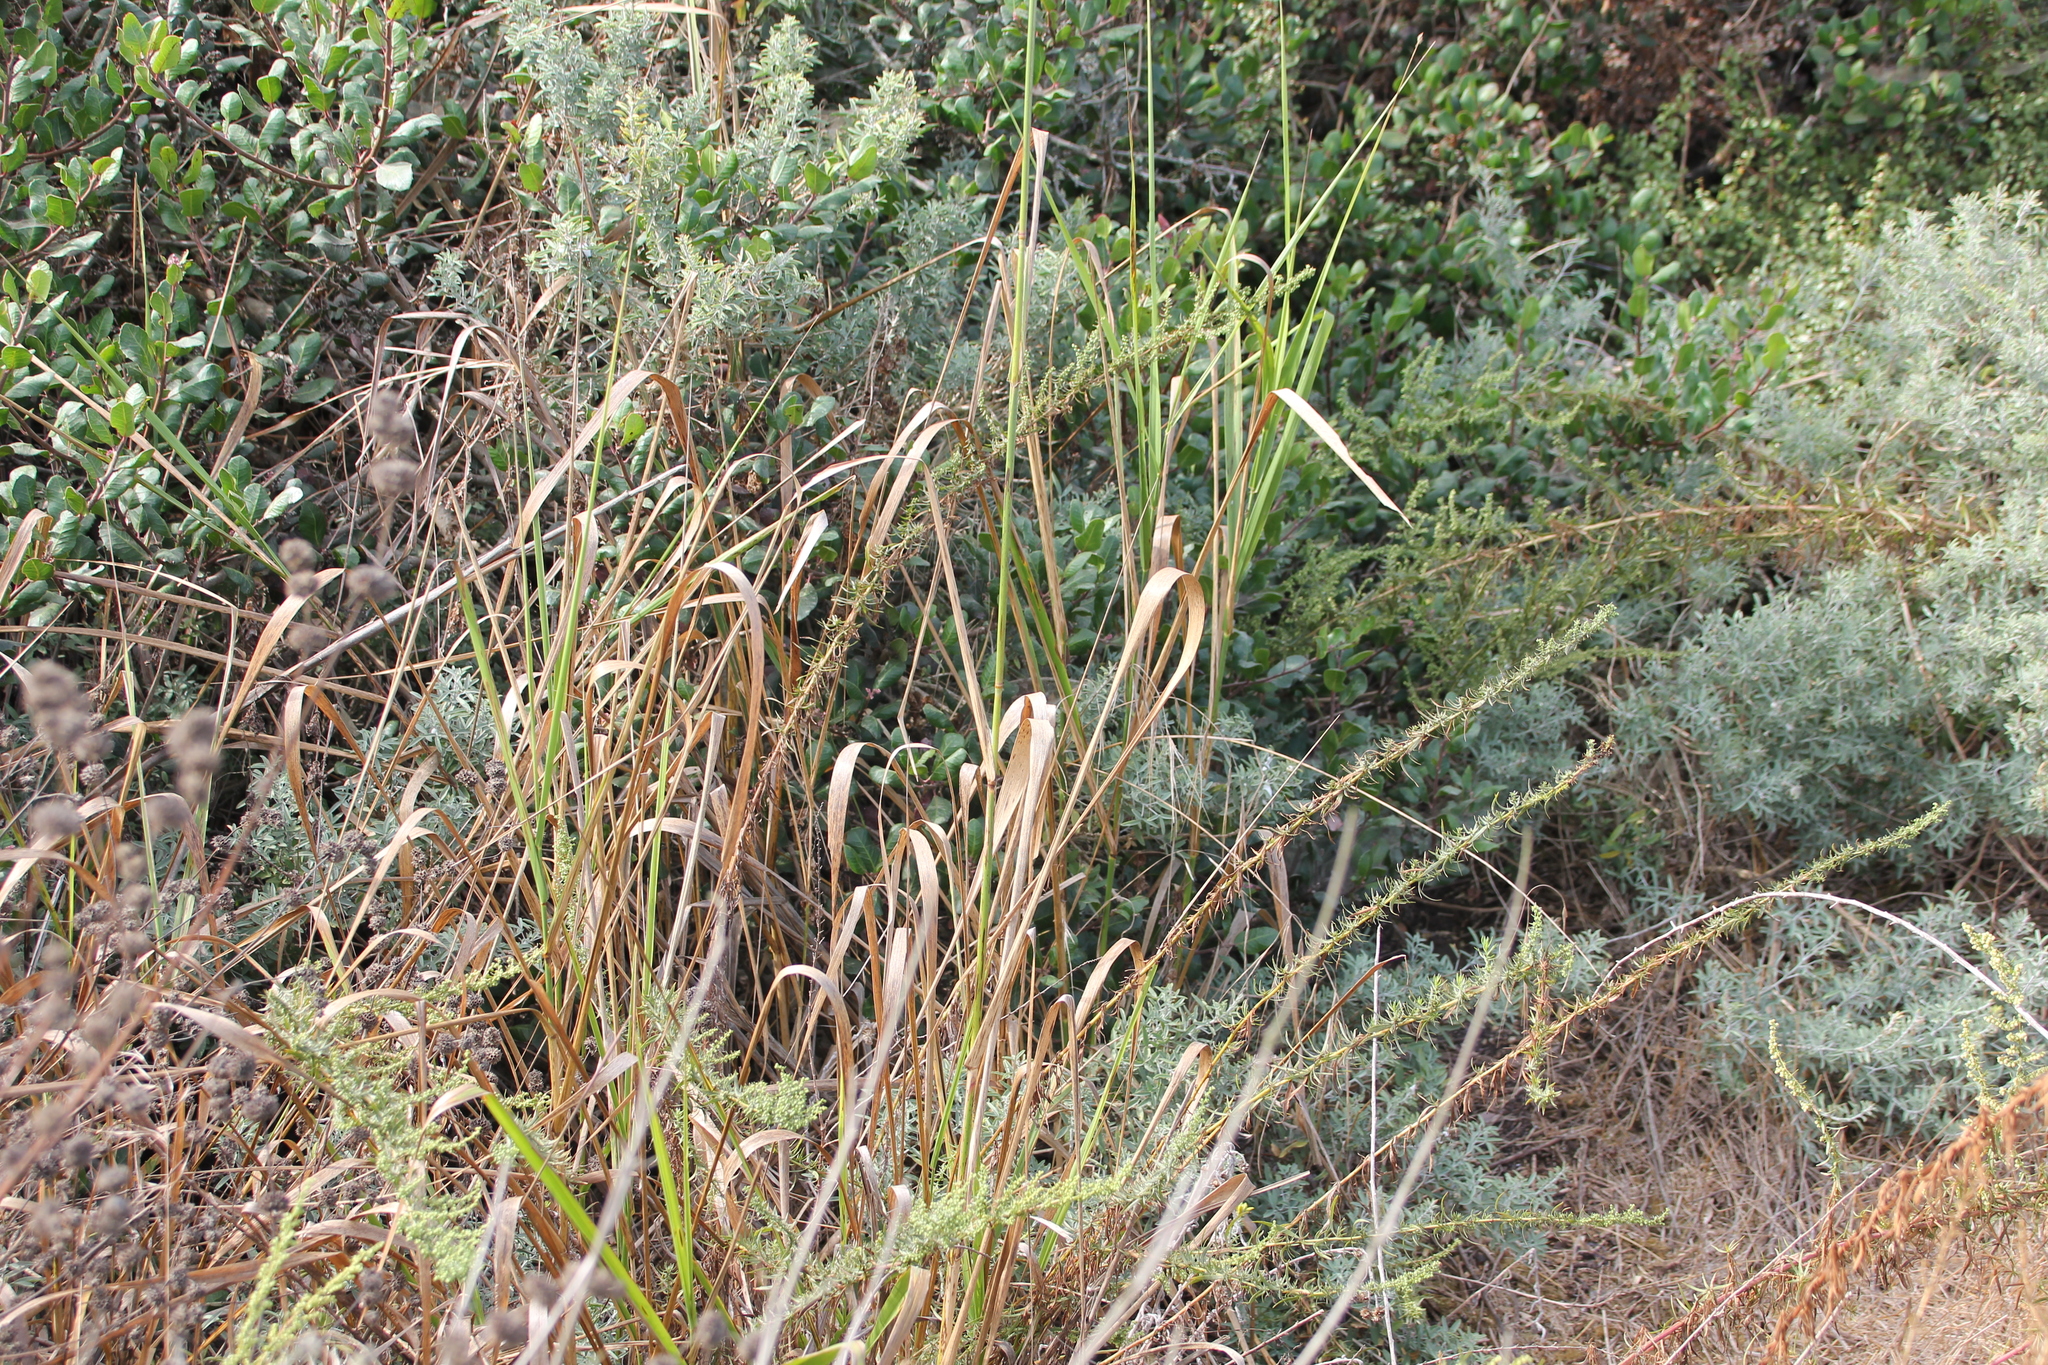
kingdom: Plantae
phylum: Tracheophyta
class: Liliopsida
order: Poales
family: Poaceae
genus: Leymus
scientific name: Leymus condensatus
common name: Giant wild rye
